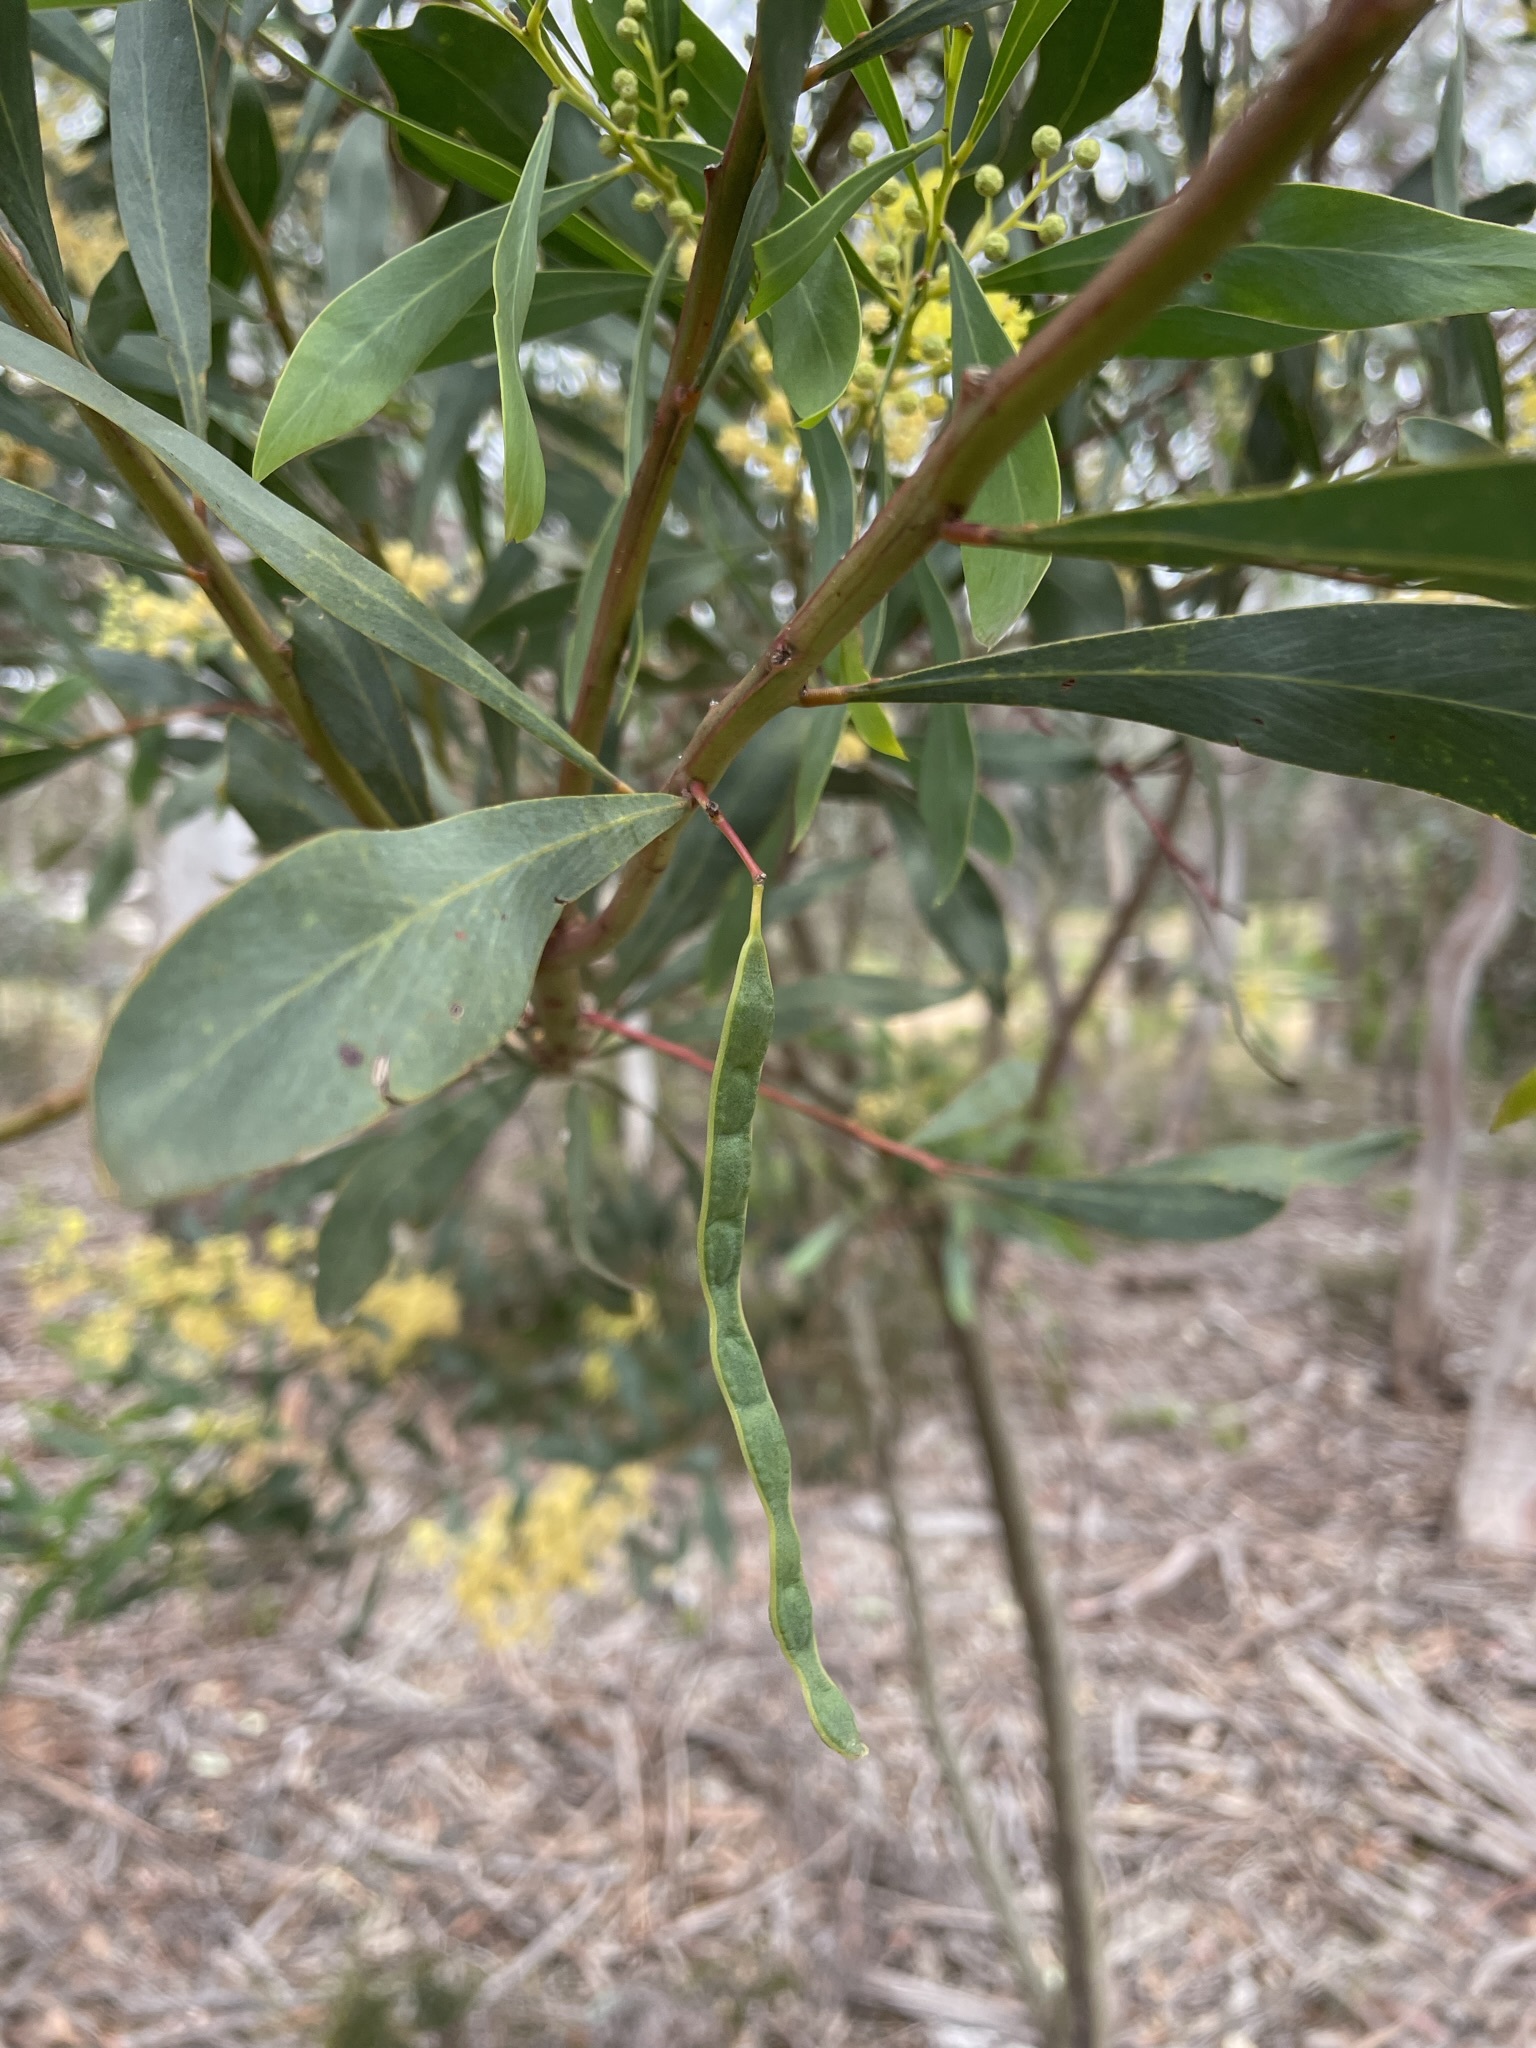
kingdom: Plantae
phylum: Tracheophyta
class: Magnoliopsida
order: Fabales
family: Fabaceae
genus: Acacia
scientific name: Acacia pycnantha
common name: Golden wattle
